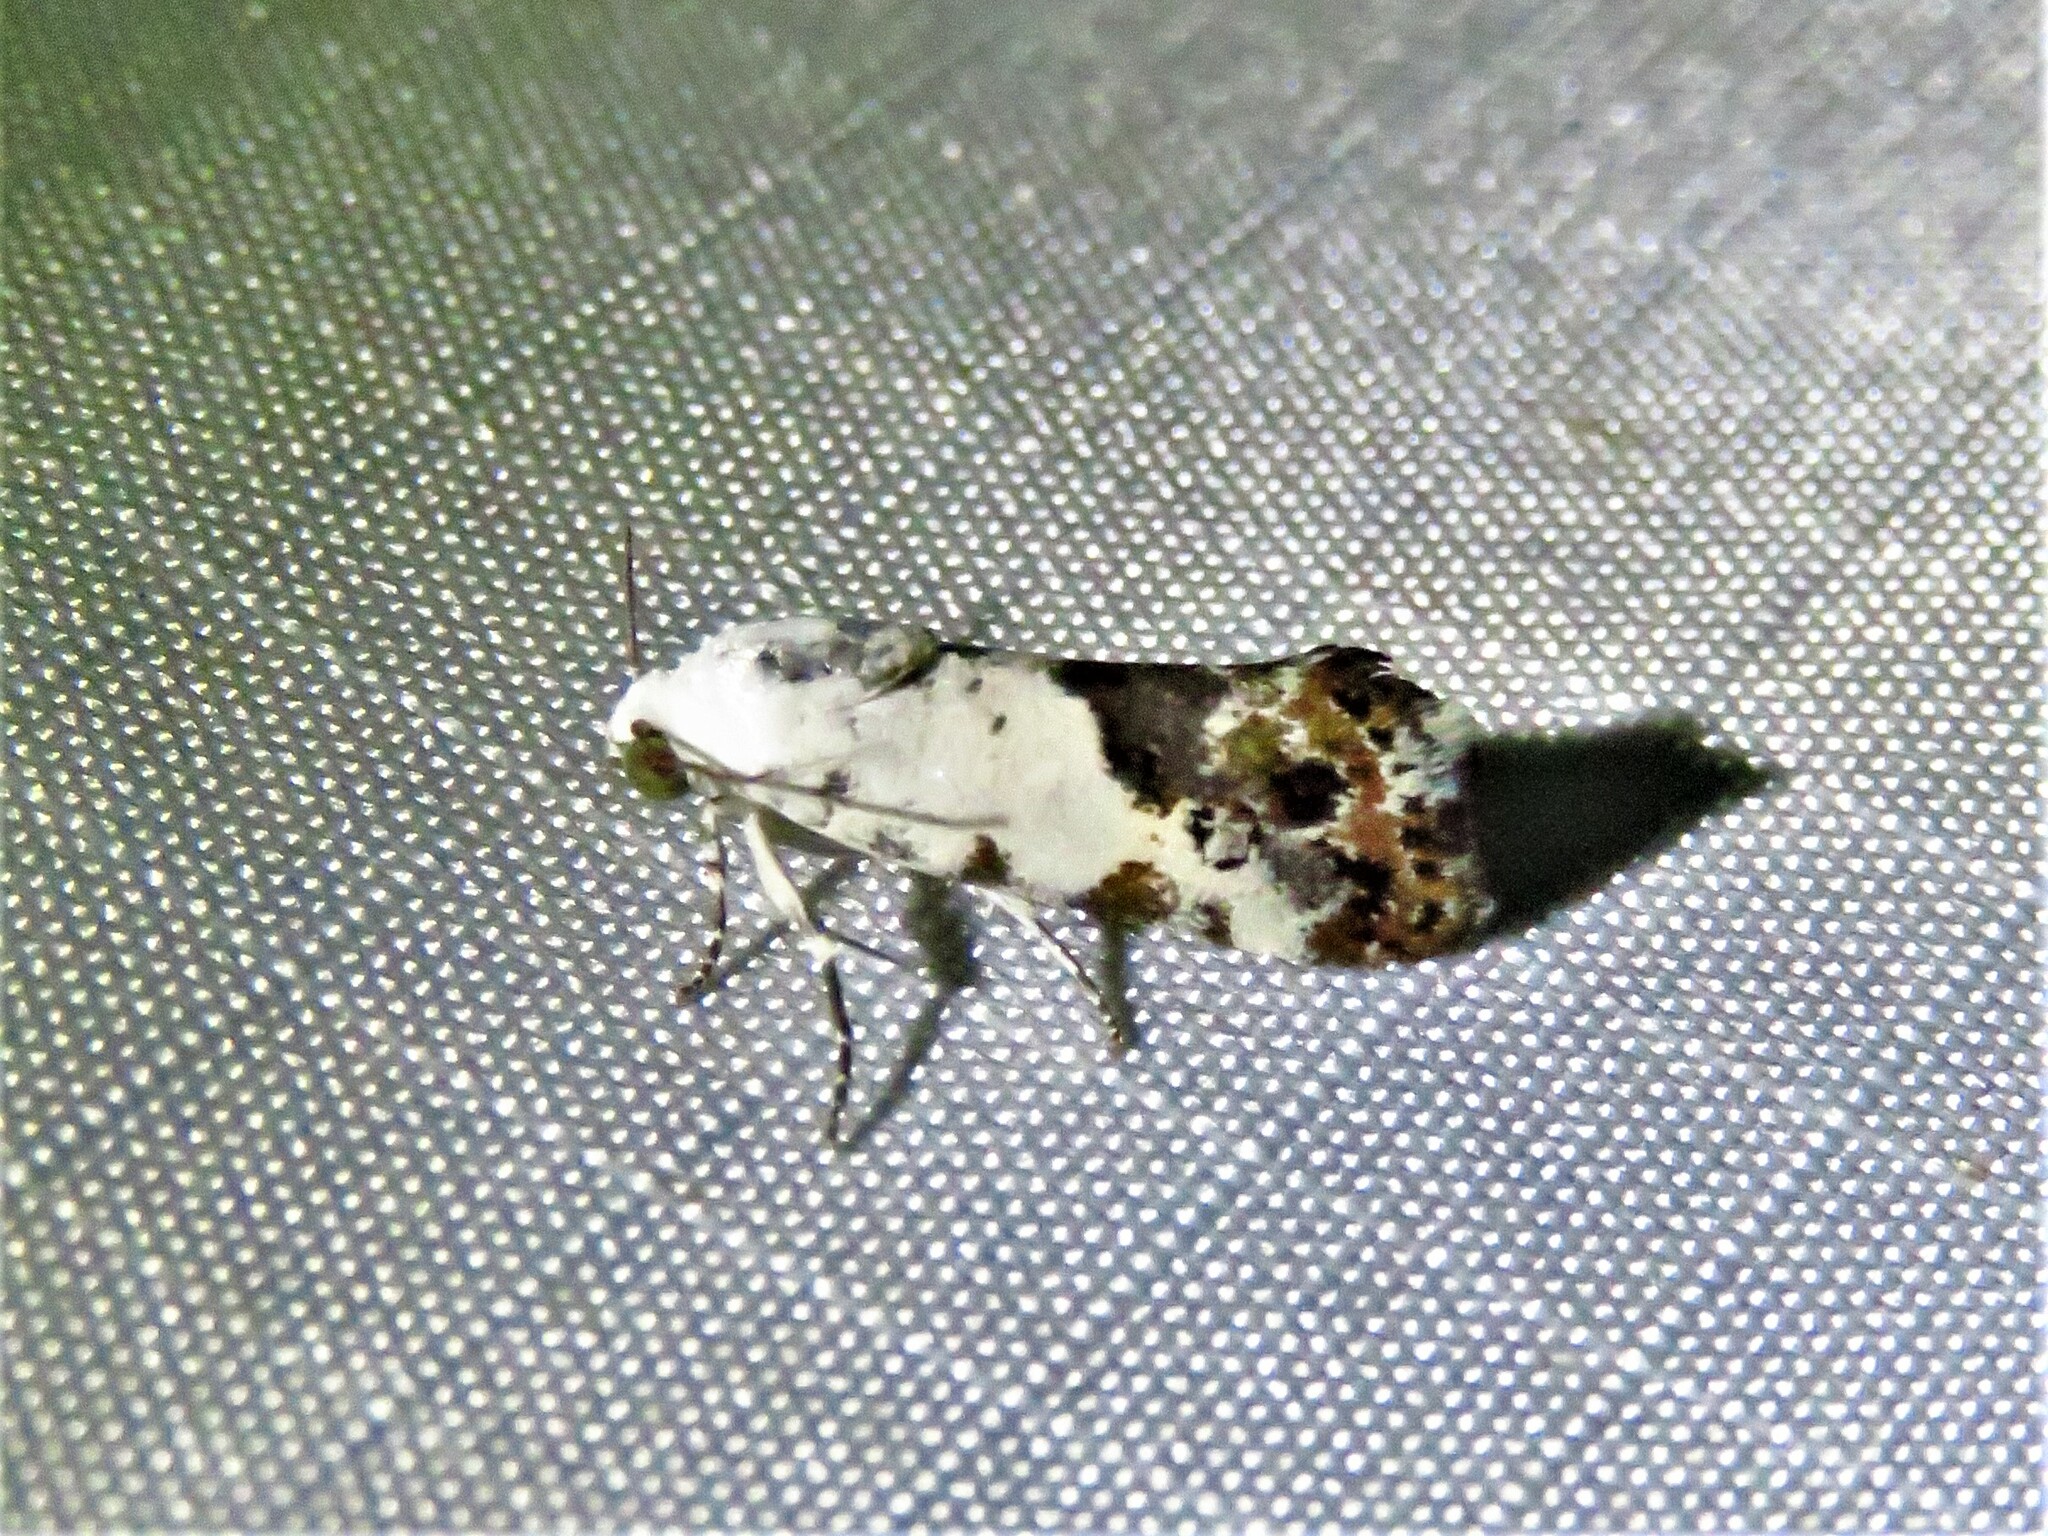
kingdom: Animalia
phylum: Arthropoda
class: Insecta
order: Lepidoptera
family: Noctuidae
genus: Acontia
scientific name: Acontia phecolisca
